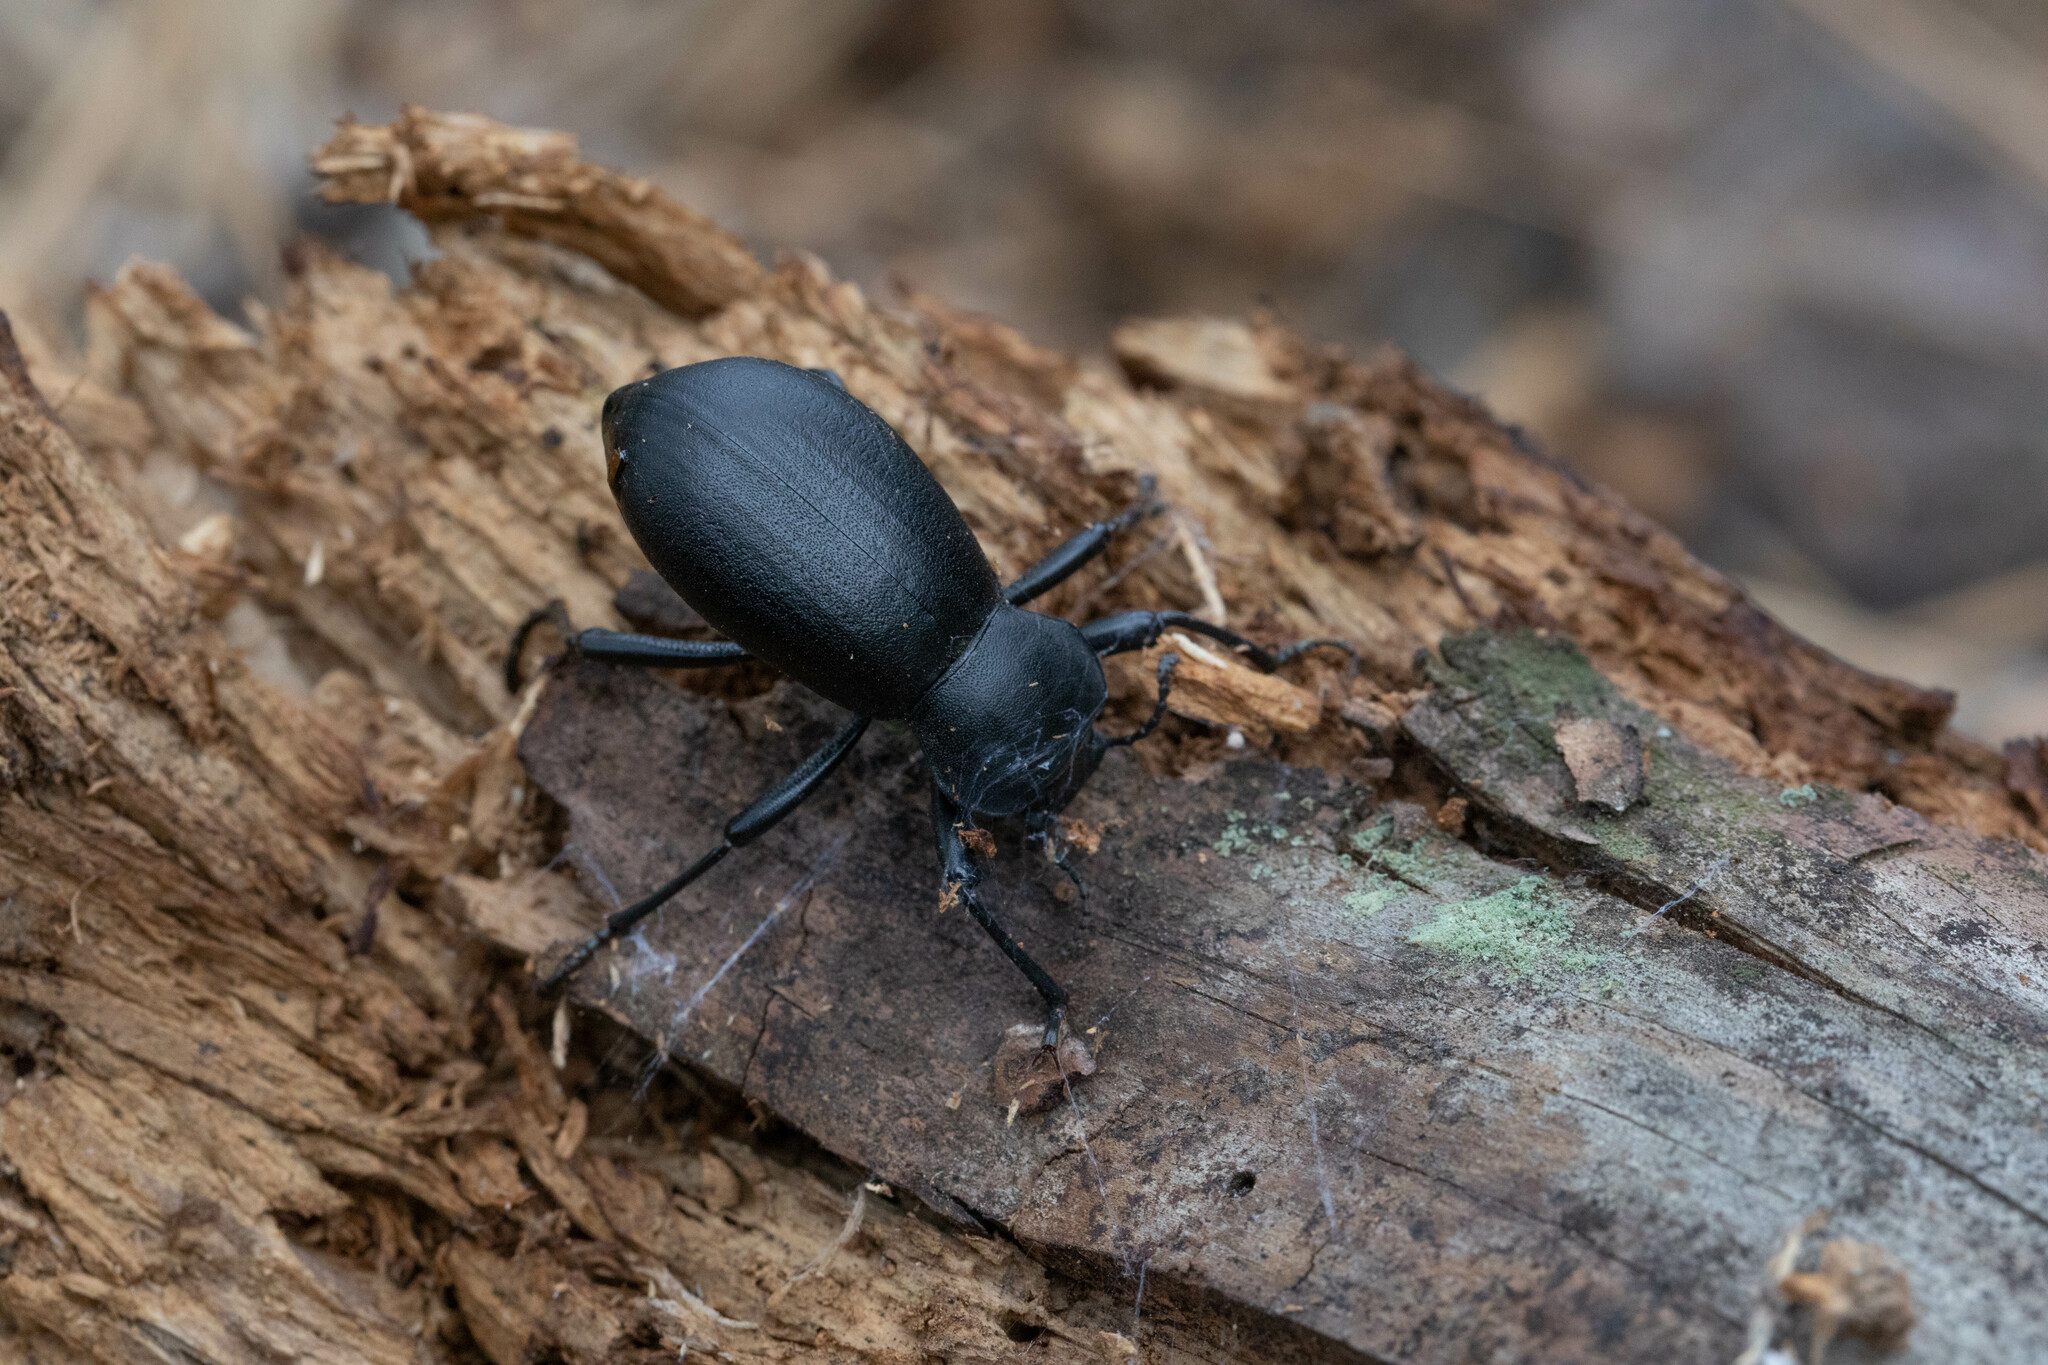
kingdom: Animalia
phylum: Arthropoda
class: Insecta
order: Coleoptera
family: Tenebrionidae
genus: Coelocnemis
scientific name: Coelocnemis dilaticollis
